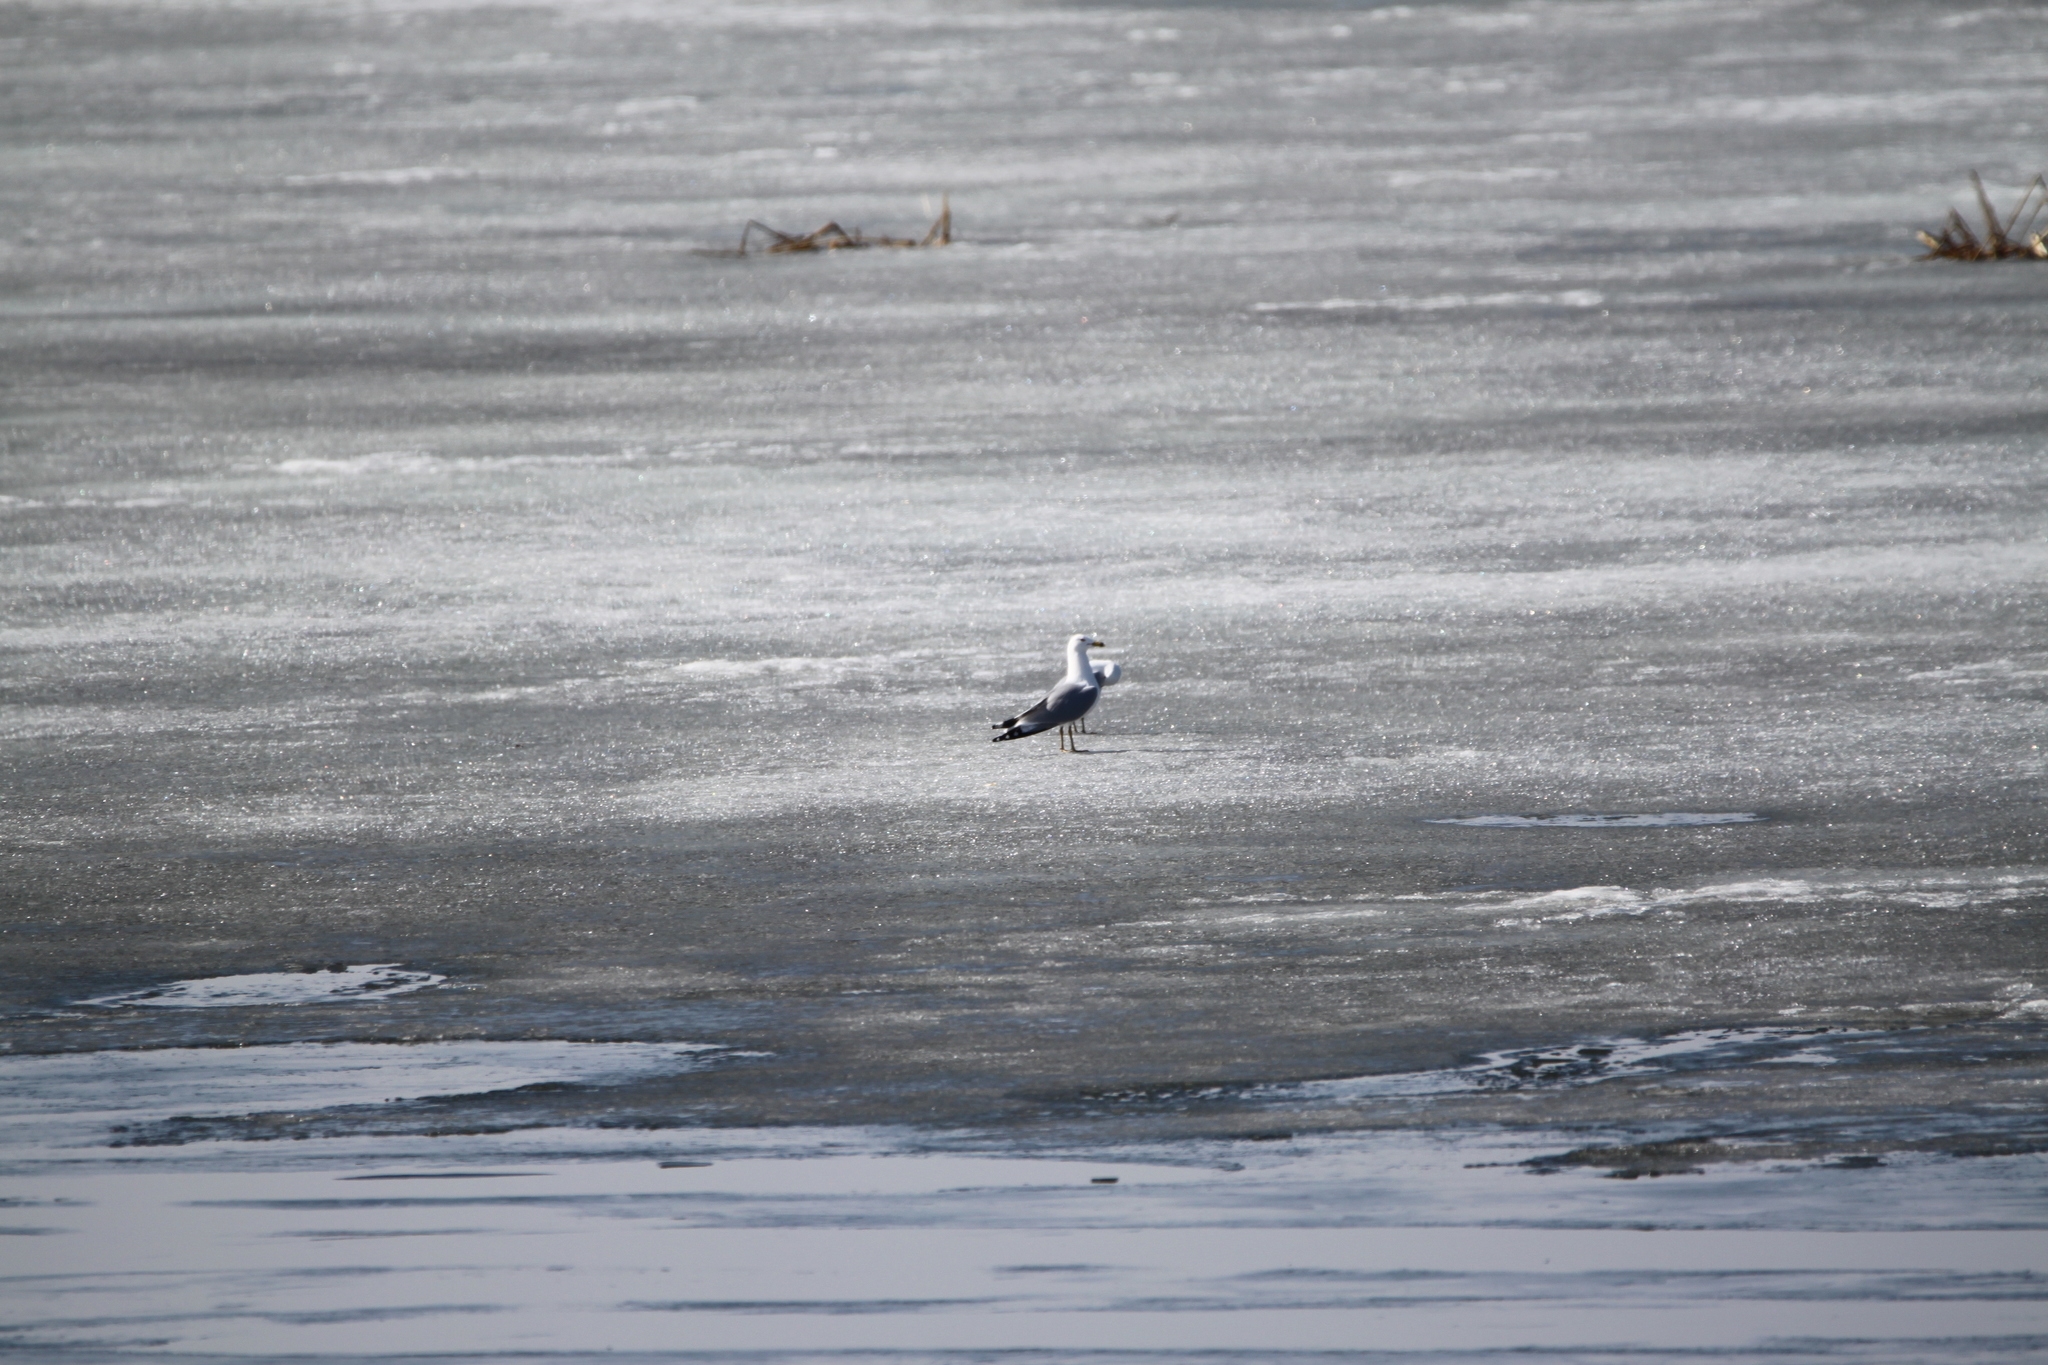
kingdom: Animalia
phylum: Chordata
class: Aves
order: Charadriiformes
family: Laridae
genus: Larus
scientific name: Larus delawarensis
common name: Ring-billed gull
